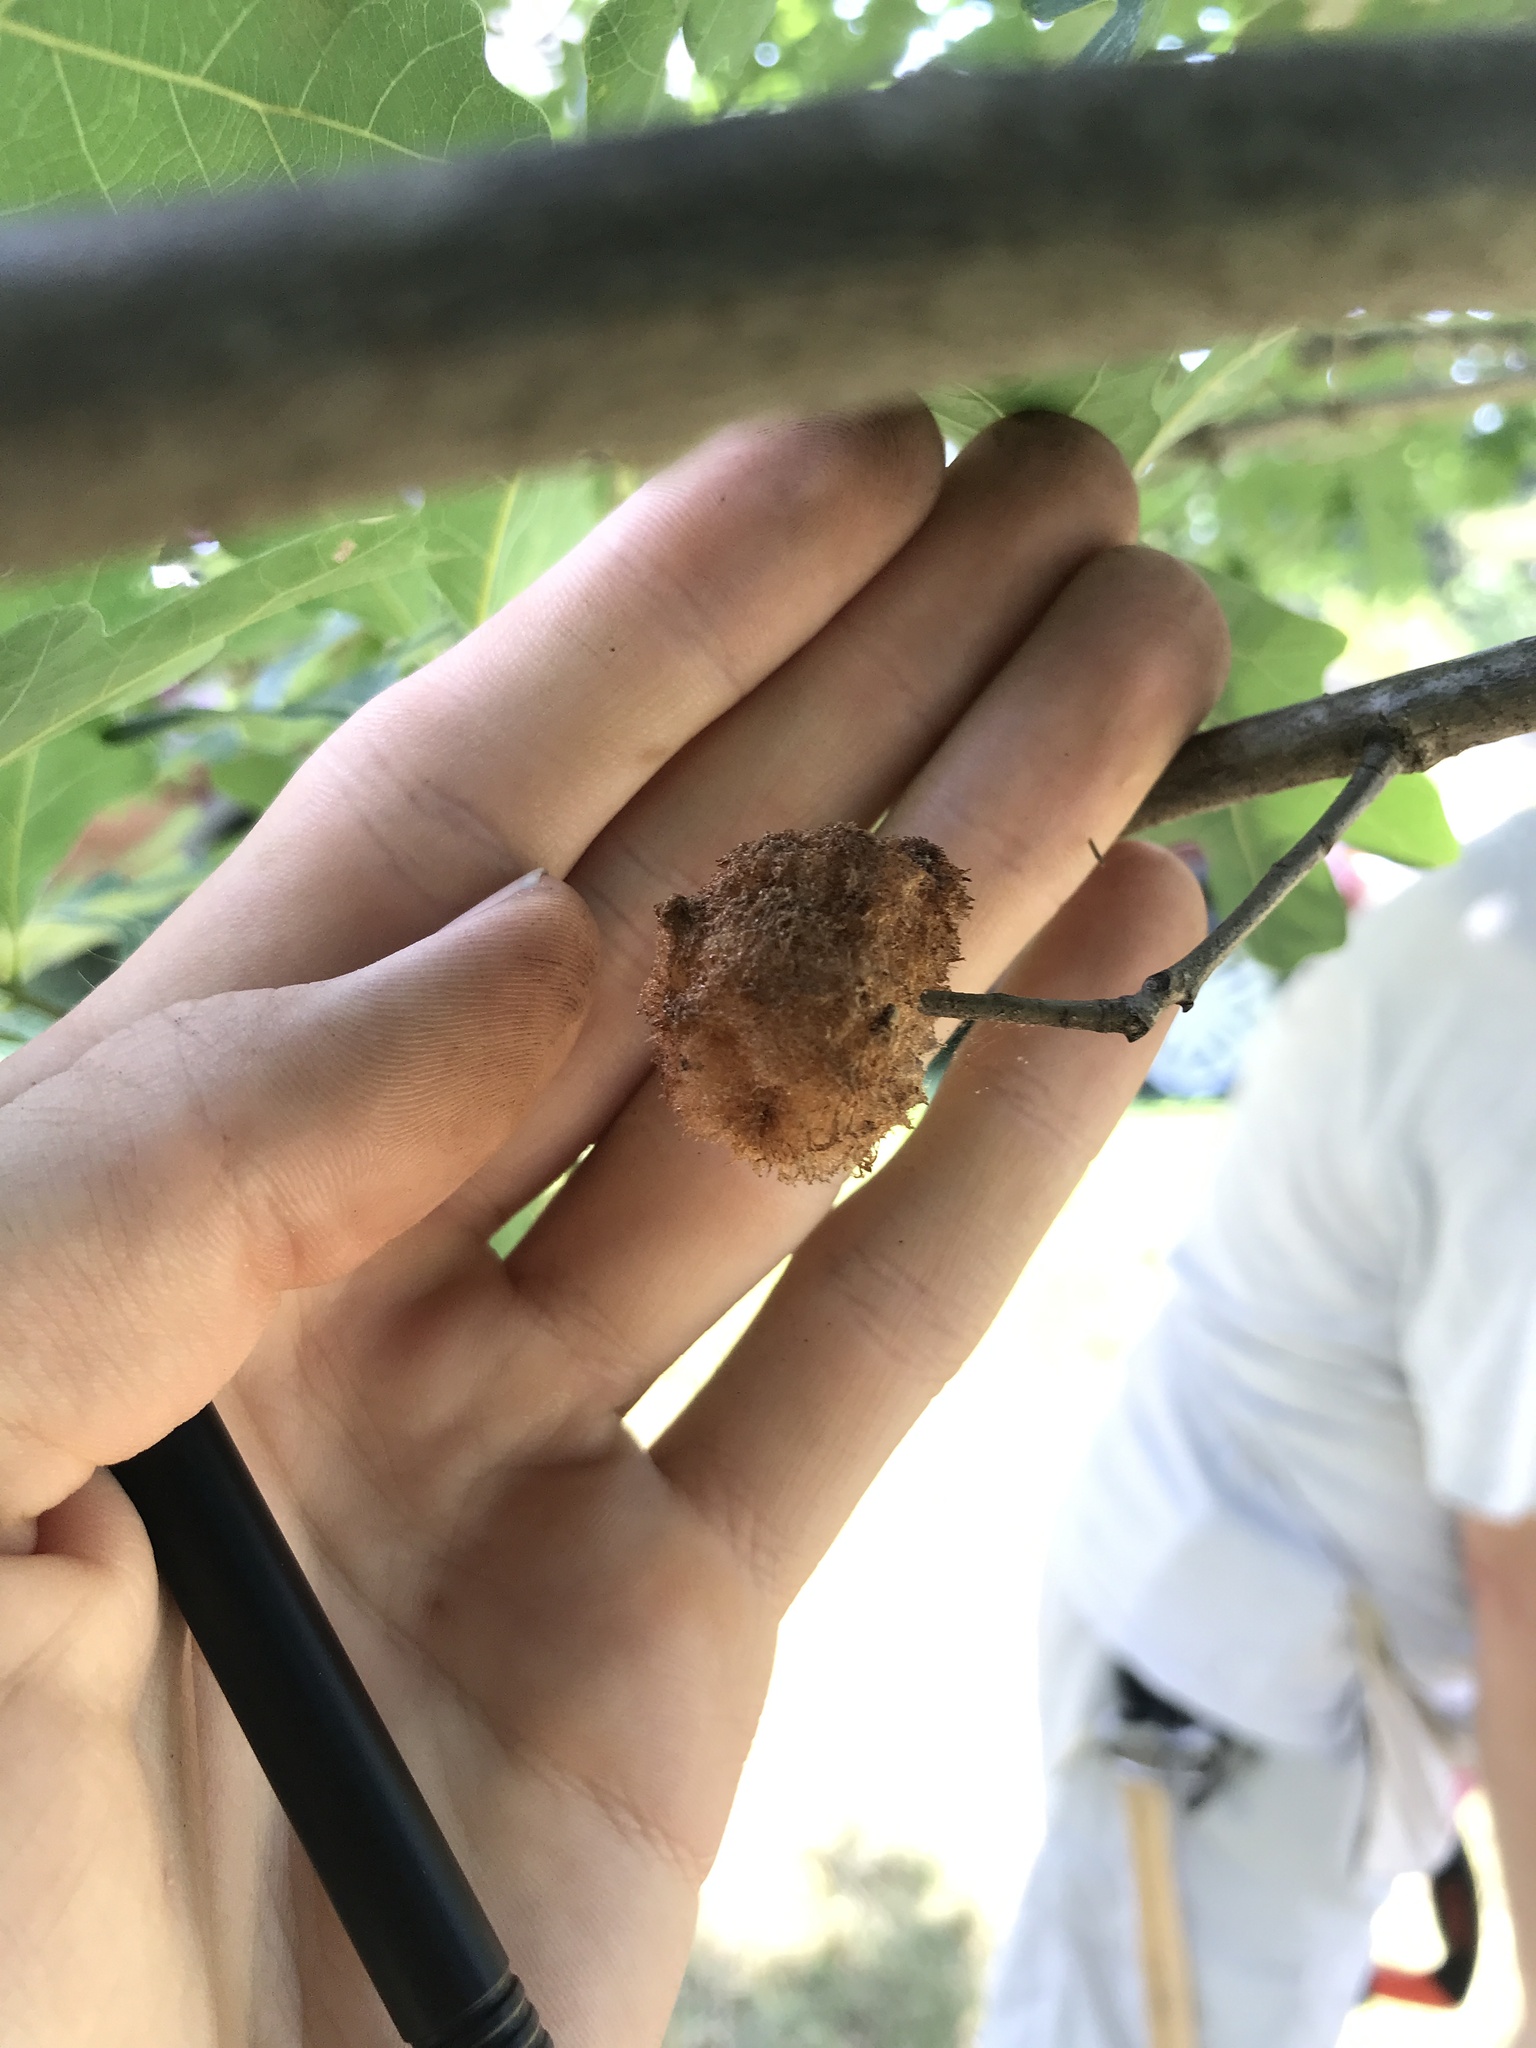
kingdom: Animalia
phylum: Arthropoda
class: Insecta
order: Hymenoptera
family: Cynipidae
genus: Callirhytis
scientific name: Callirhytis
